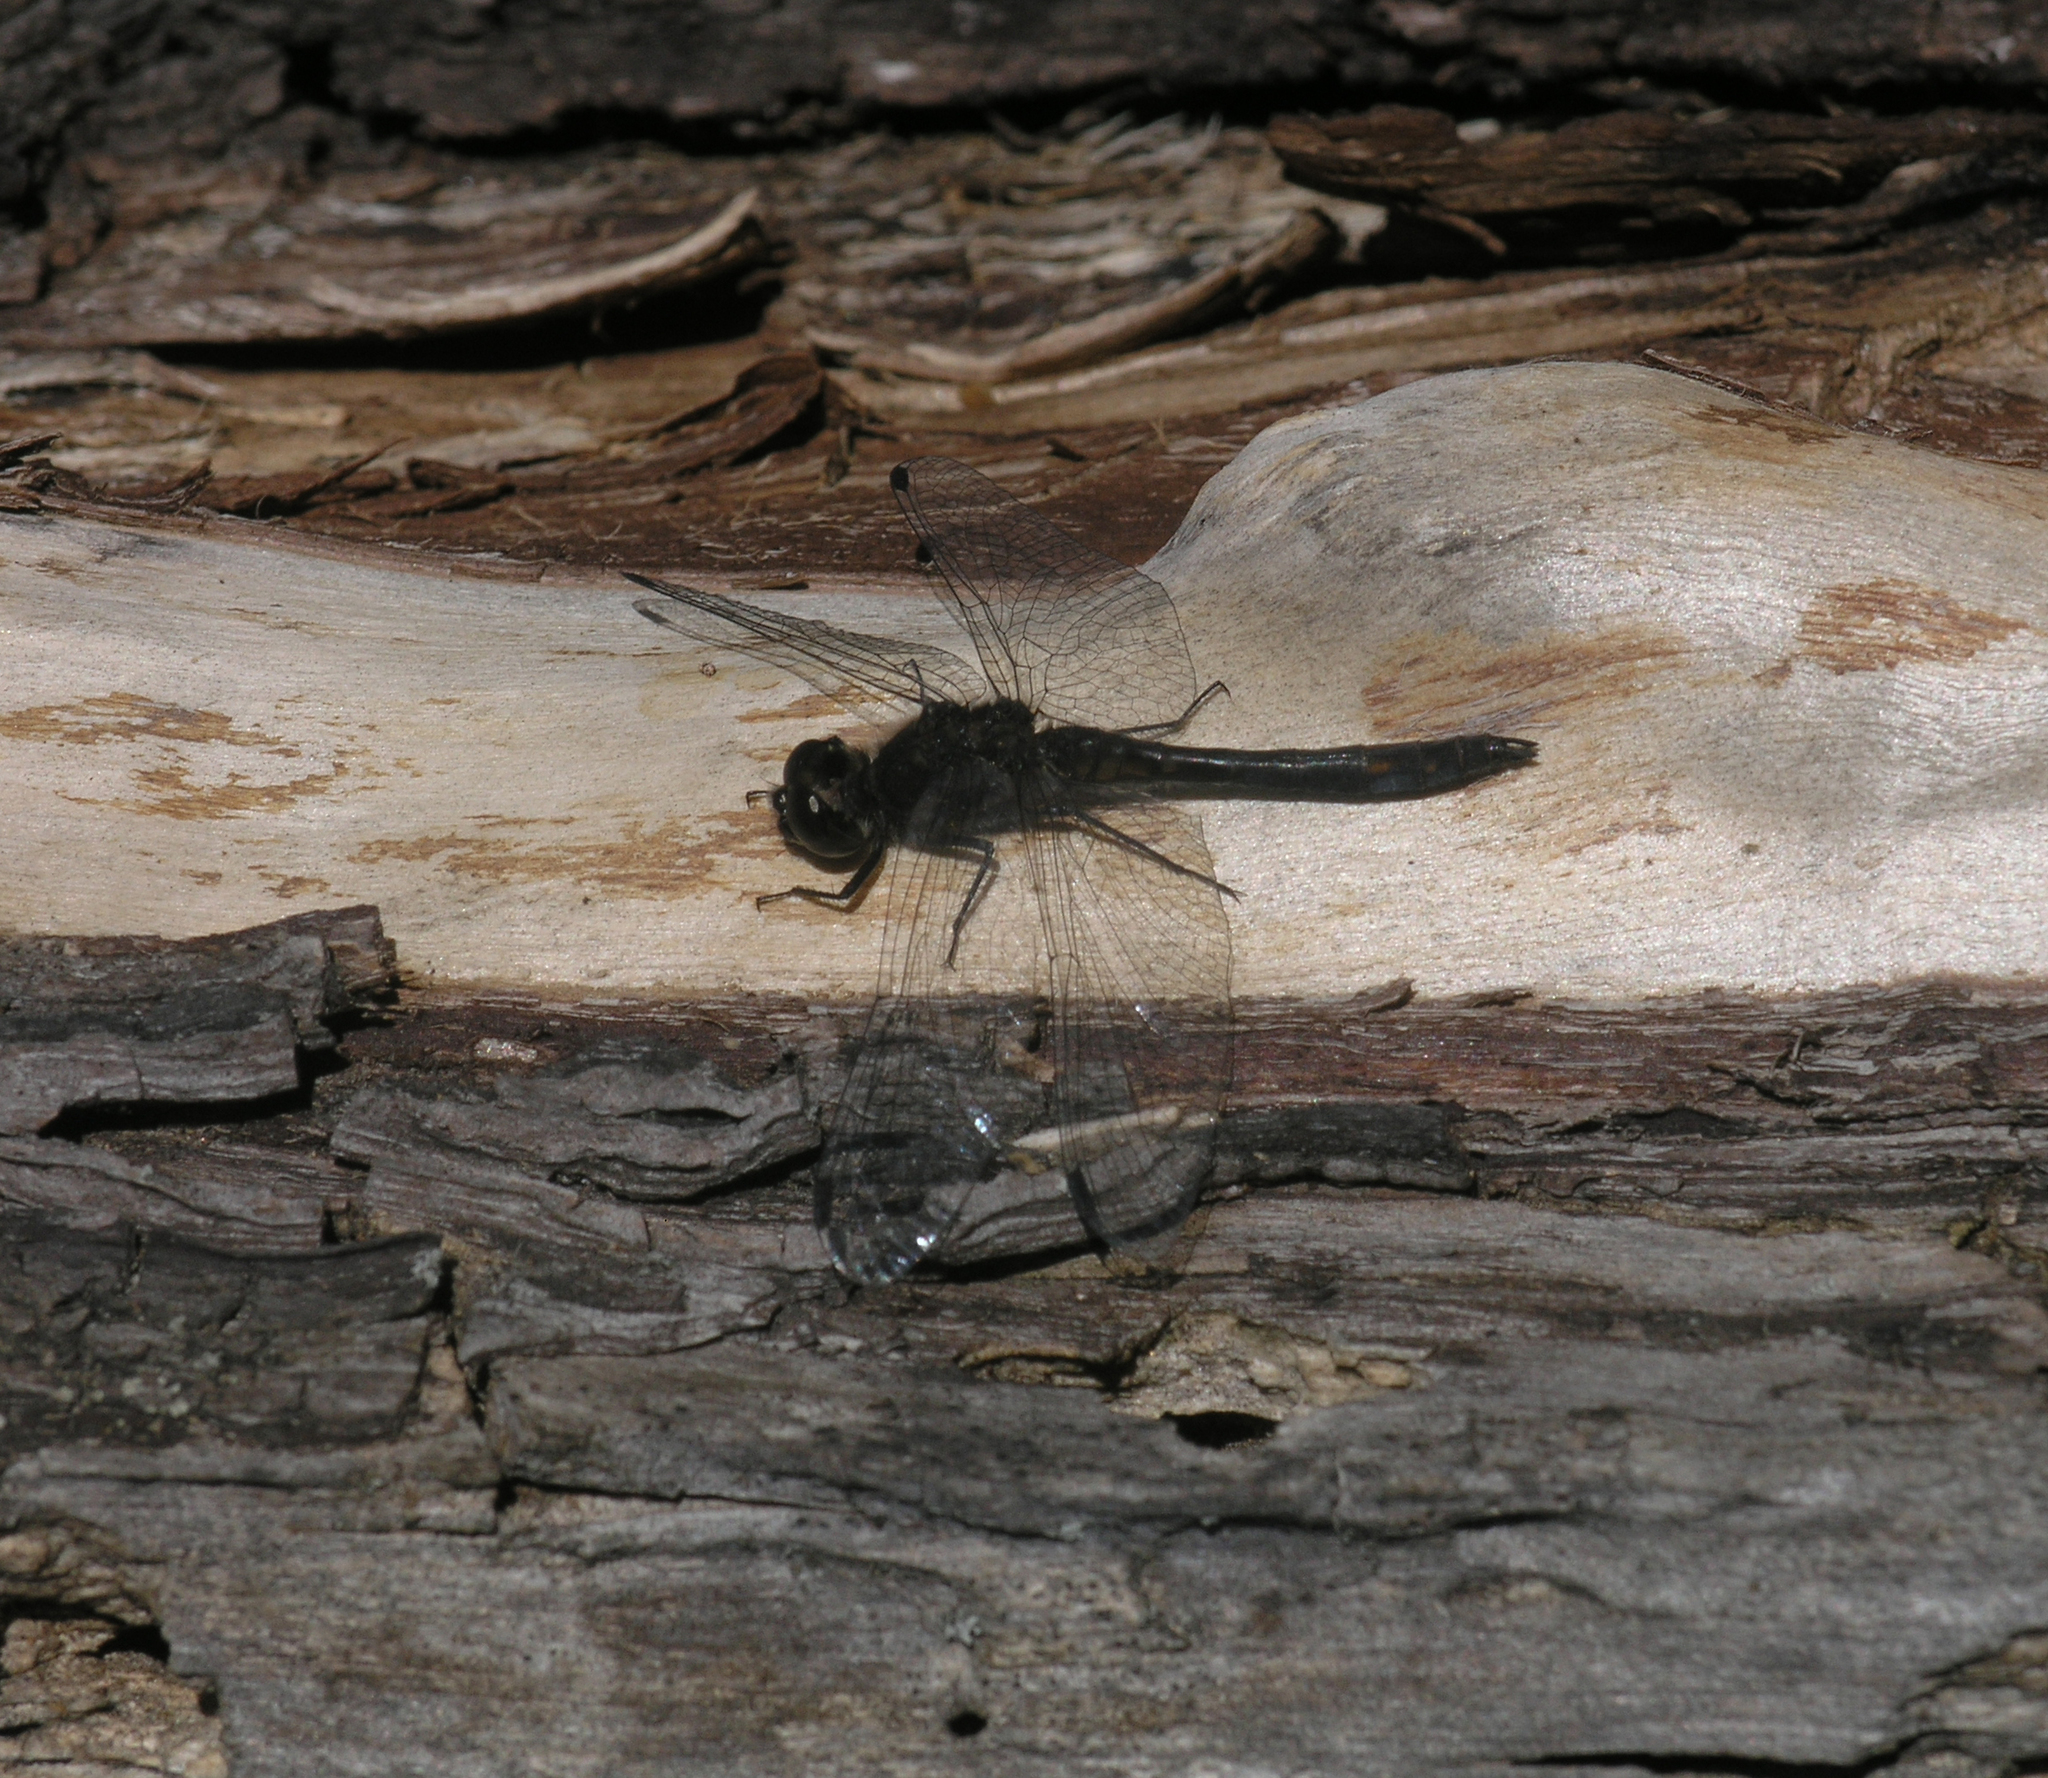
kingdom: Animalia
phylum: Arthropoda
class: Insecta
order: Odonata
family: Libellulidae
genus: Sympetrum
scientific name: Sympetrum danae
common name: Black darter
